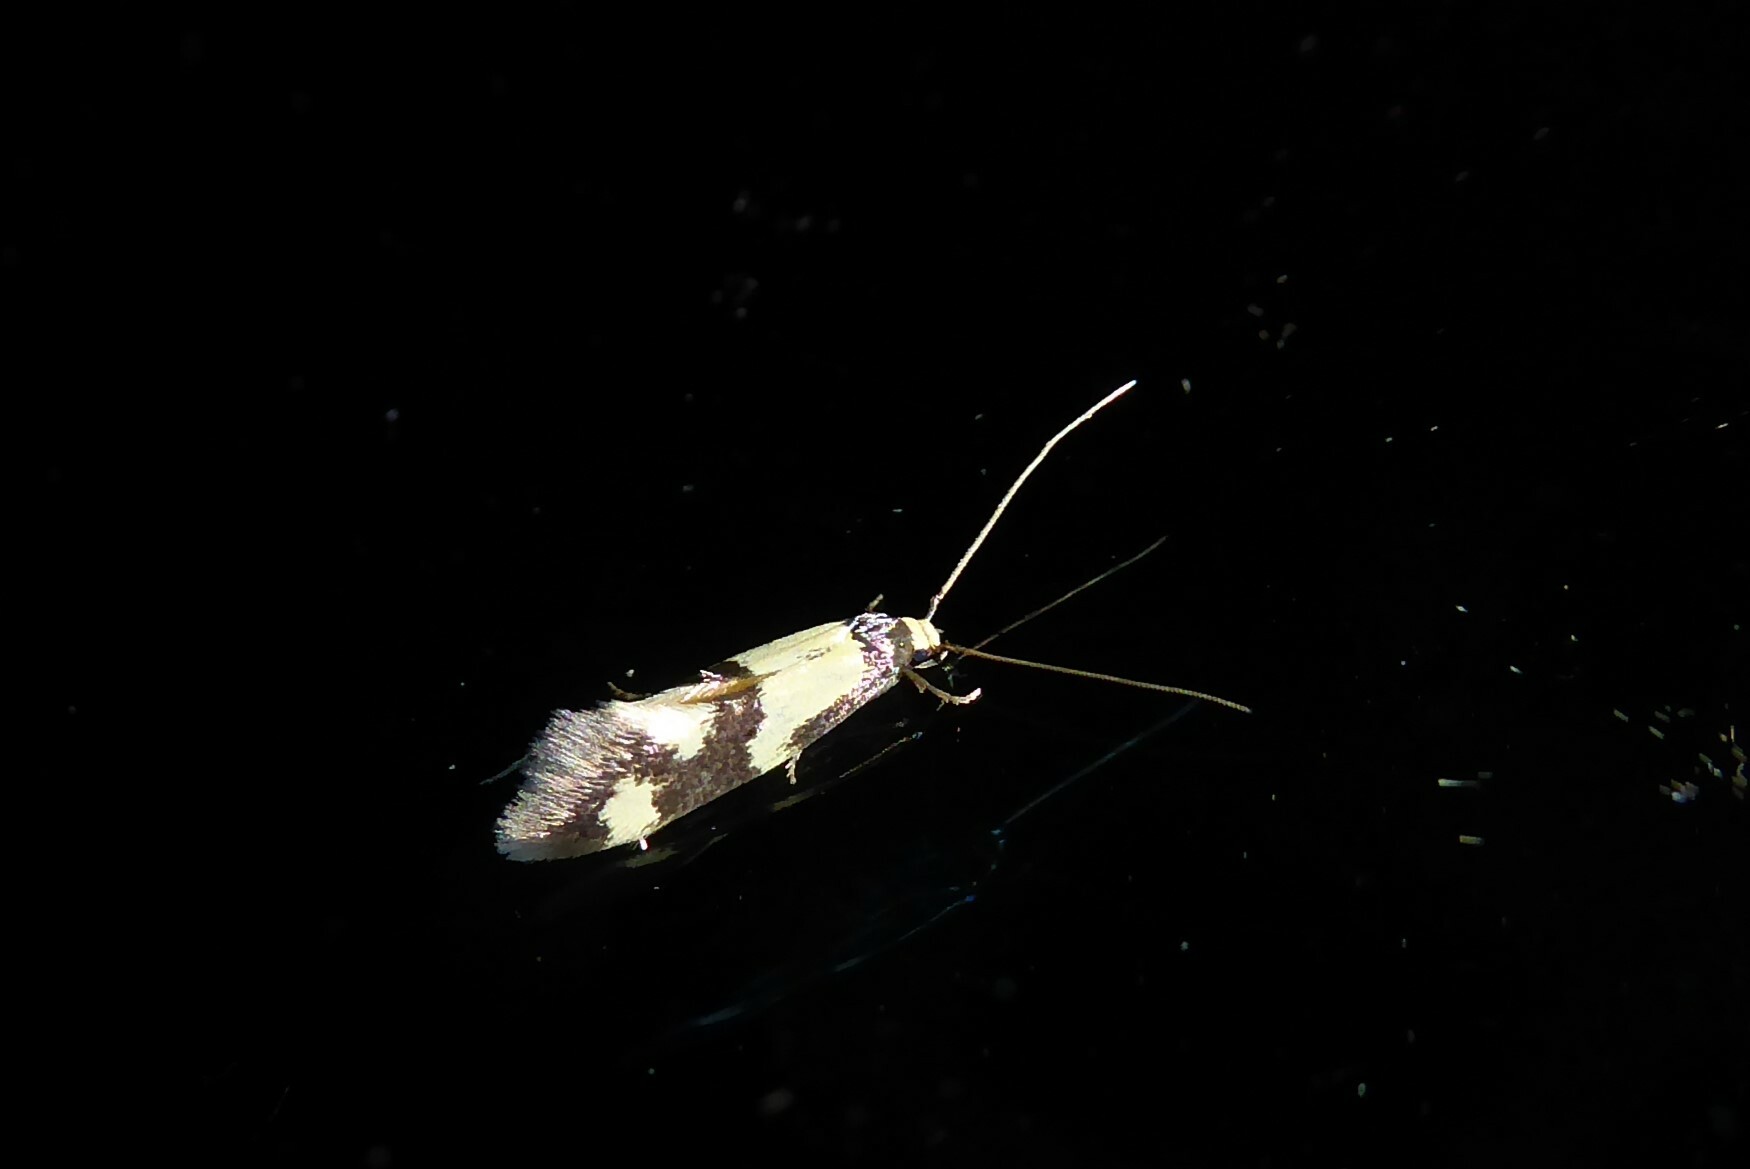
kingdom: Animalia
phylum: Arthropoda
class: Insecta
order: Lepidoptera
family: Tineidae
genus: Opogona
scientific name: Opogona comptella
